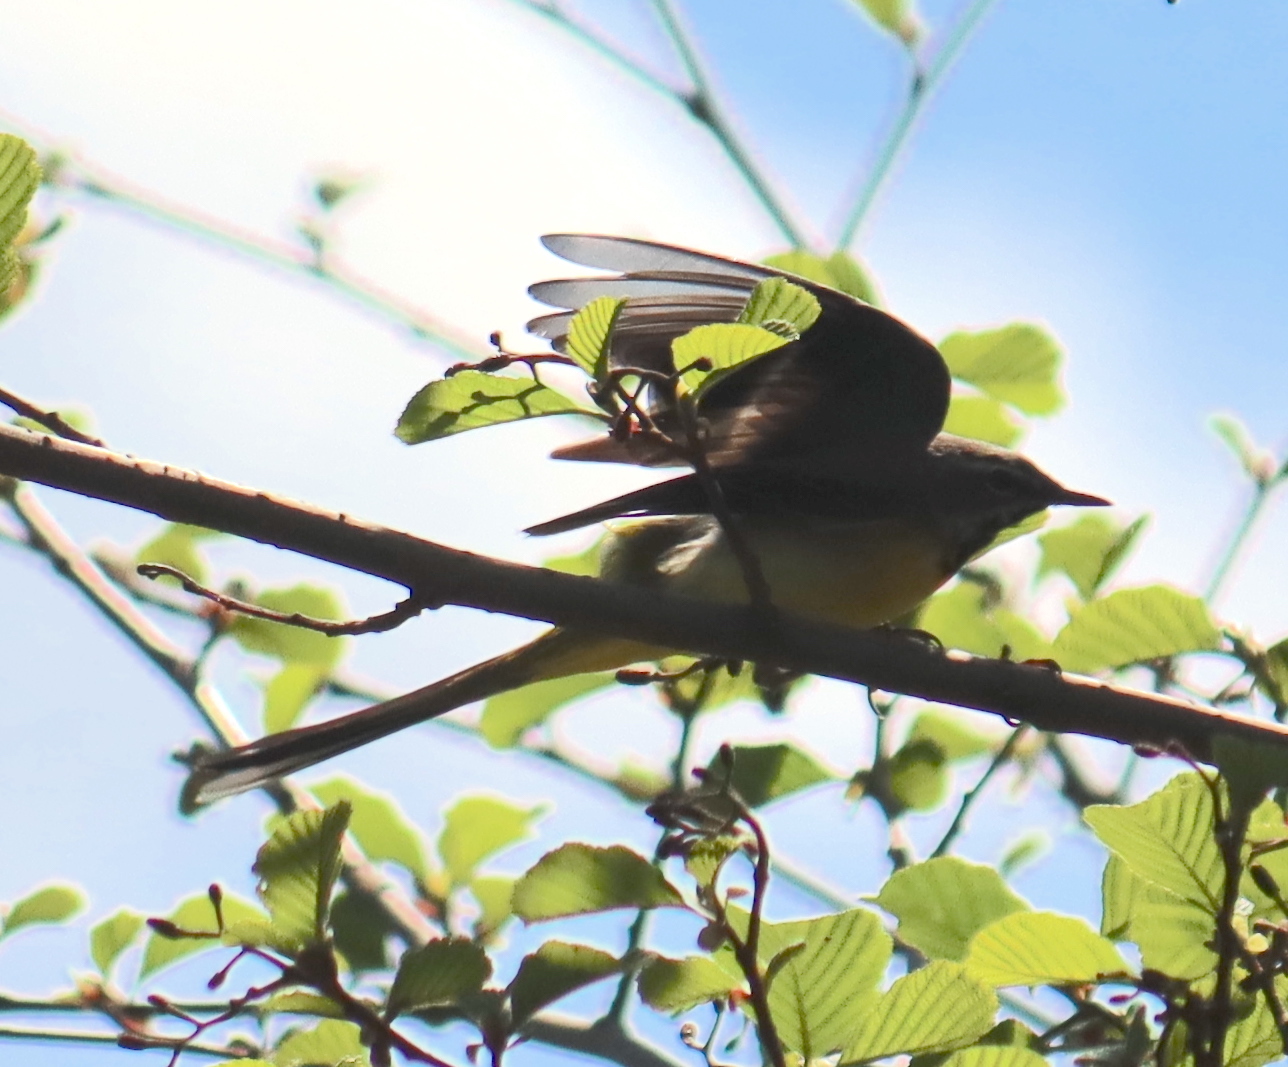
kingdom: Animalia
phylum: Chordata
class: Aves
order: Passeriformes
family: Motacillidae
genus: Motacilla
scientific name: Motacilla cinerea
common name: Grey wagtail
